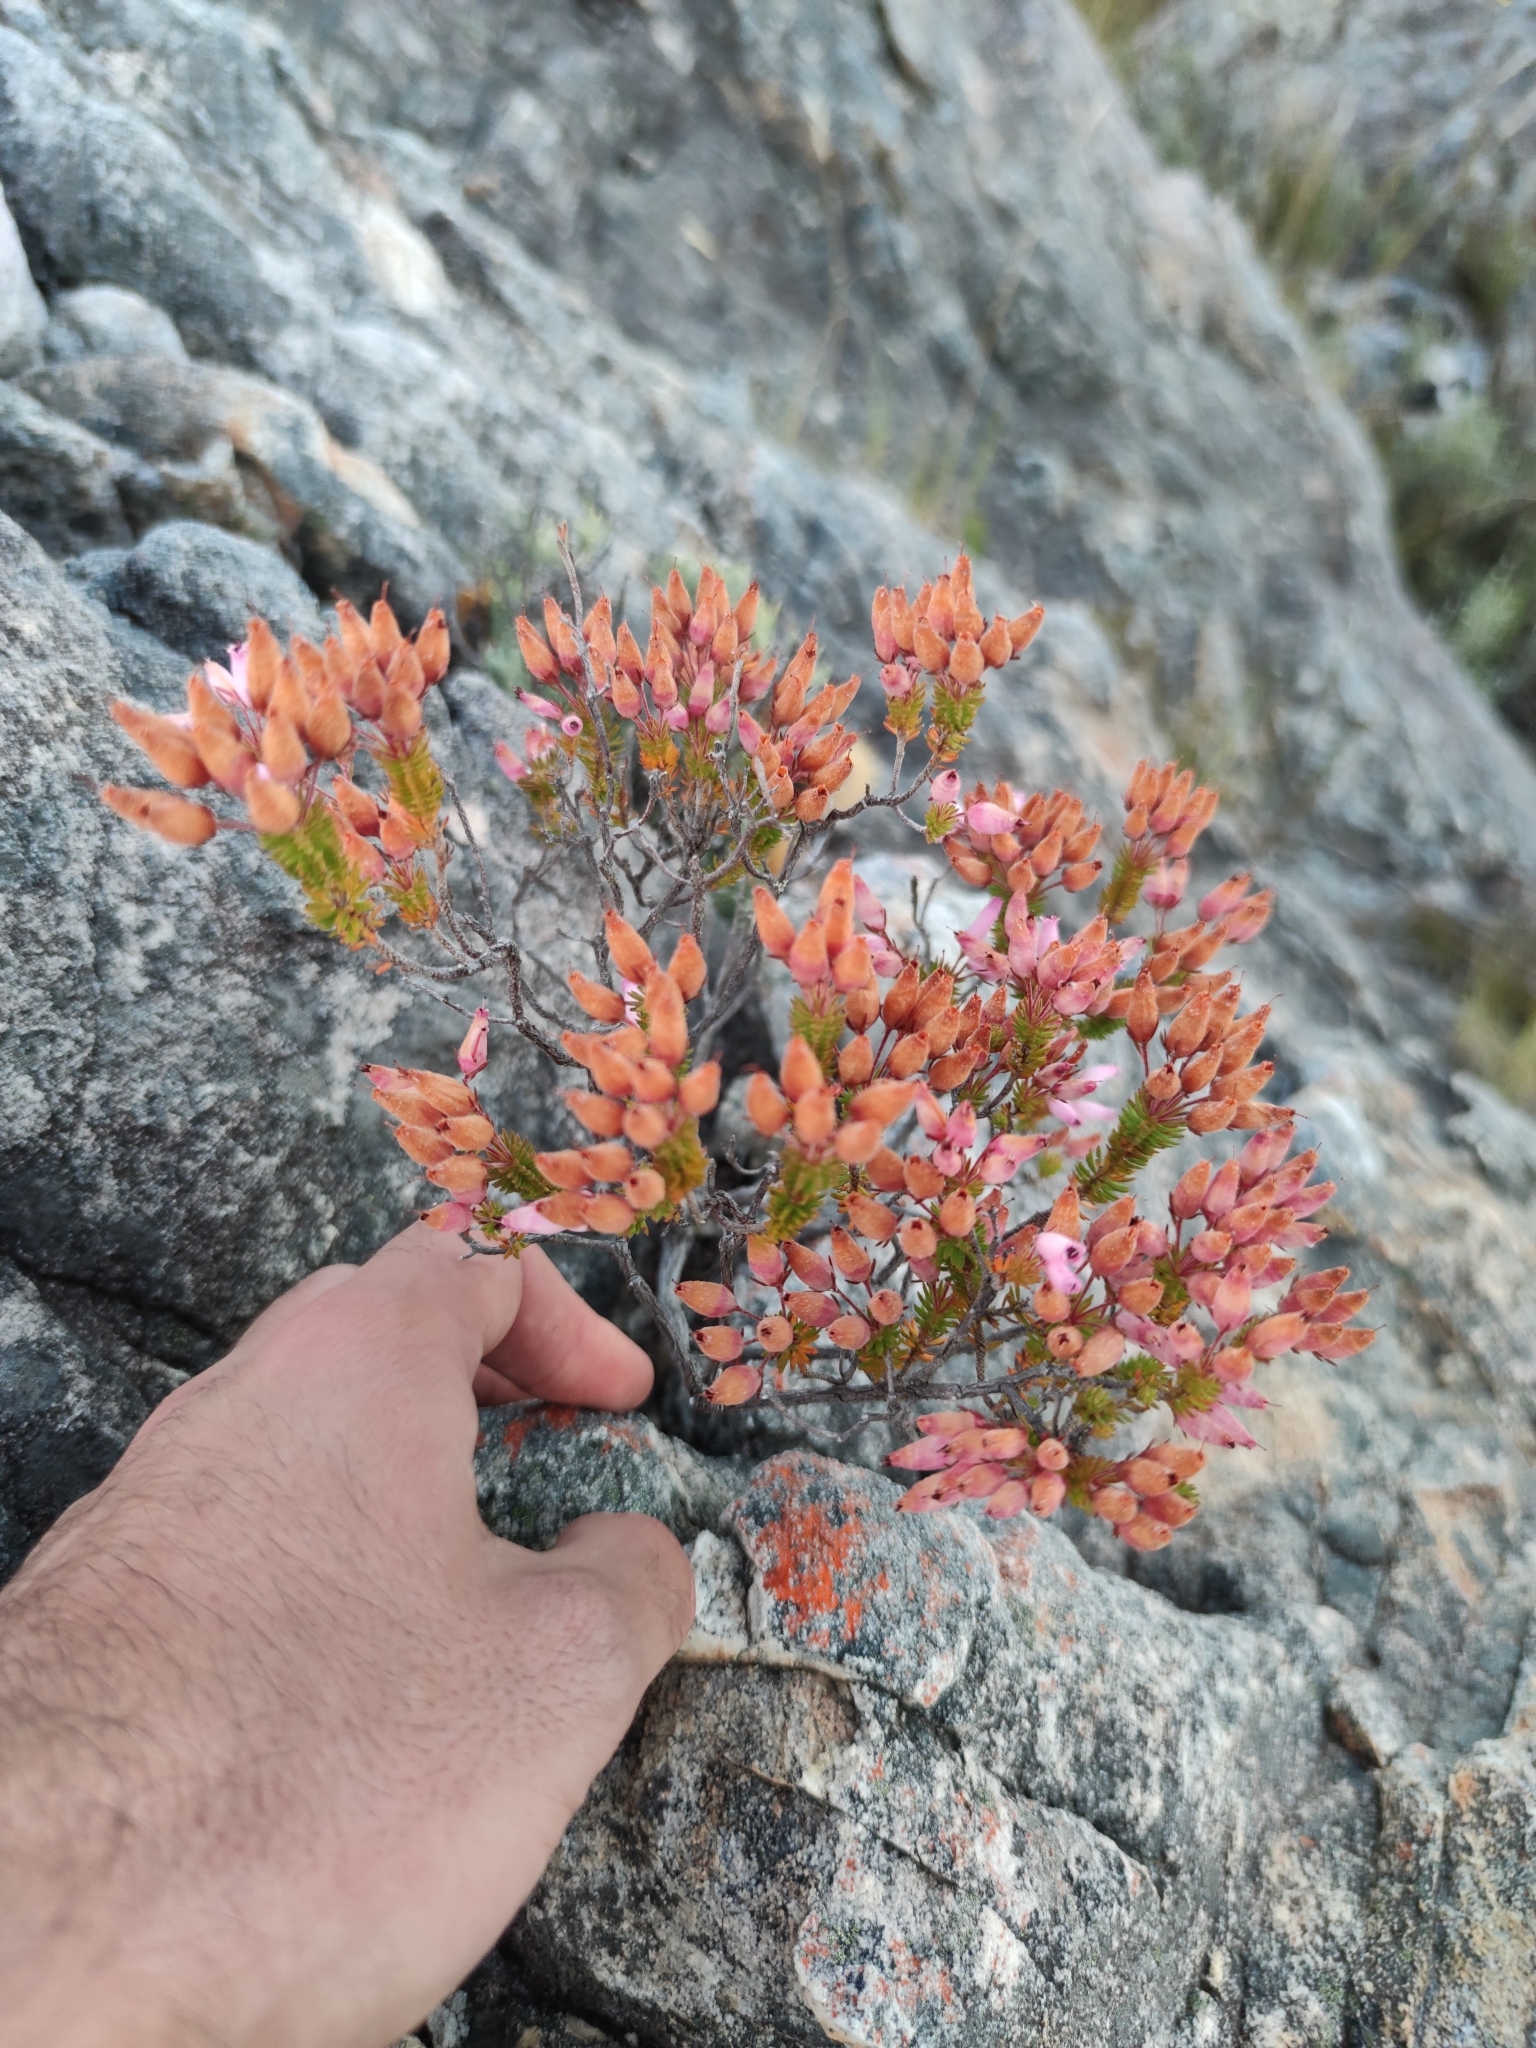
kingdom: Plantae
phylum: Tracheophyta
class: Magnoliopsida
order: Ericales
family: Ericaceae
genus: Erica
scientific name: Erica doliiformis
